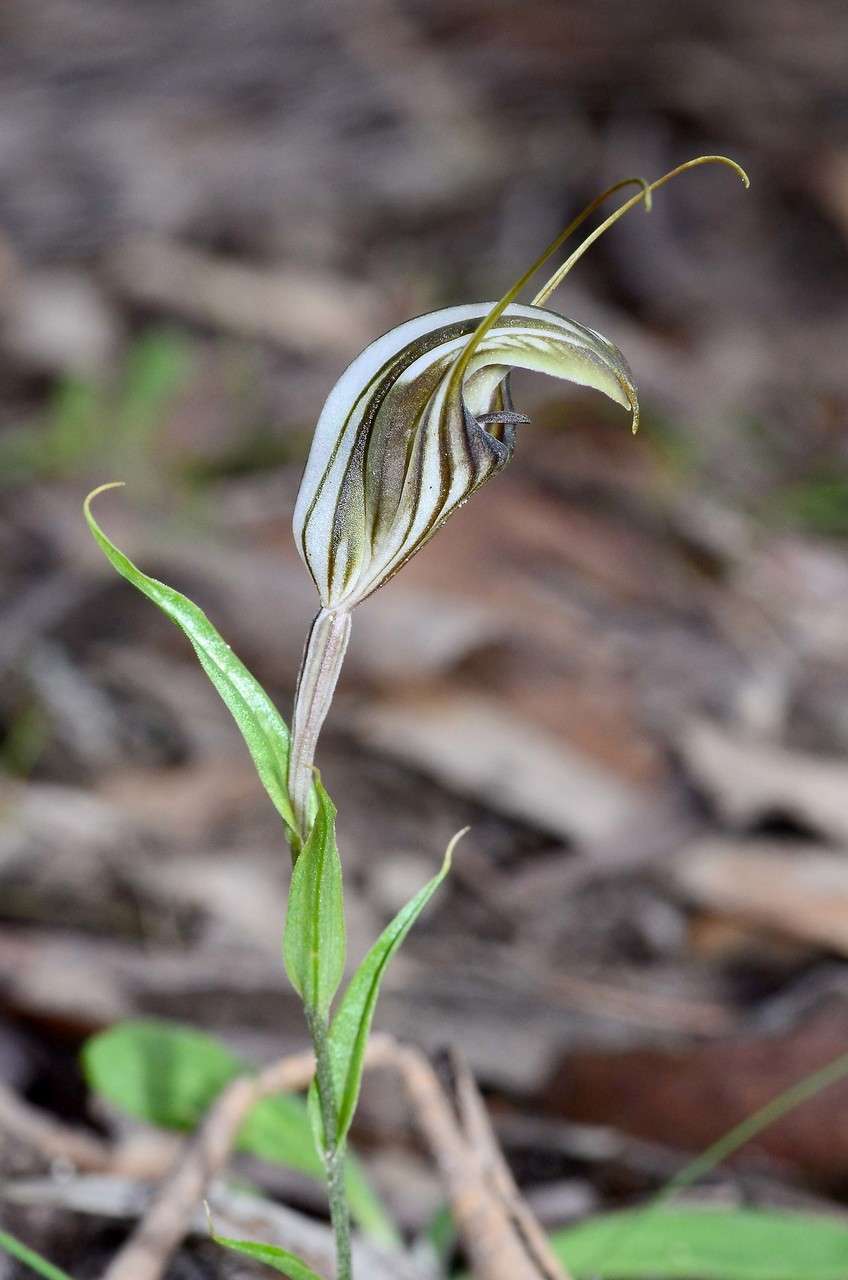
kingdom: Plantae
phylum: Tracheophyta
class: Liliopsida
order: Asparagales
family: Orchidaceae
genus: Pterostylis
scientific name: Pterostylis dolichochila
